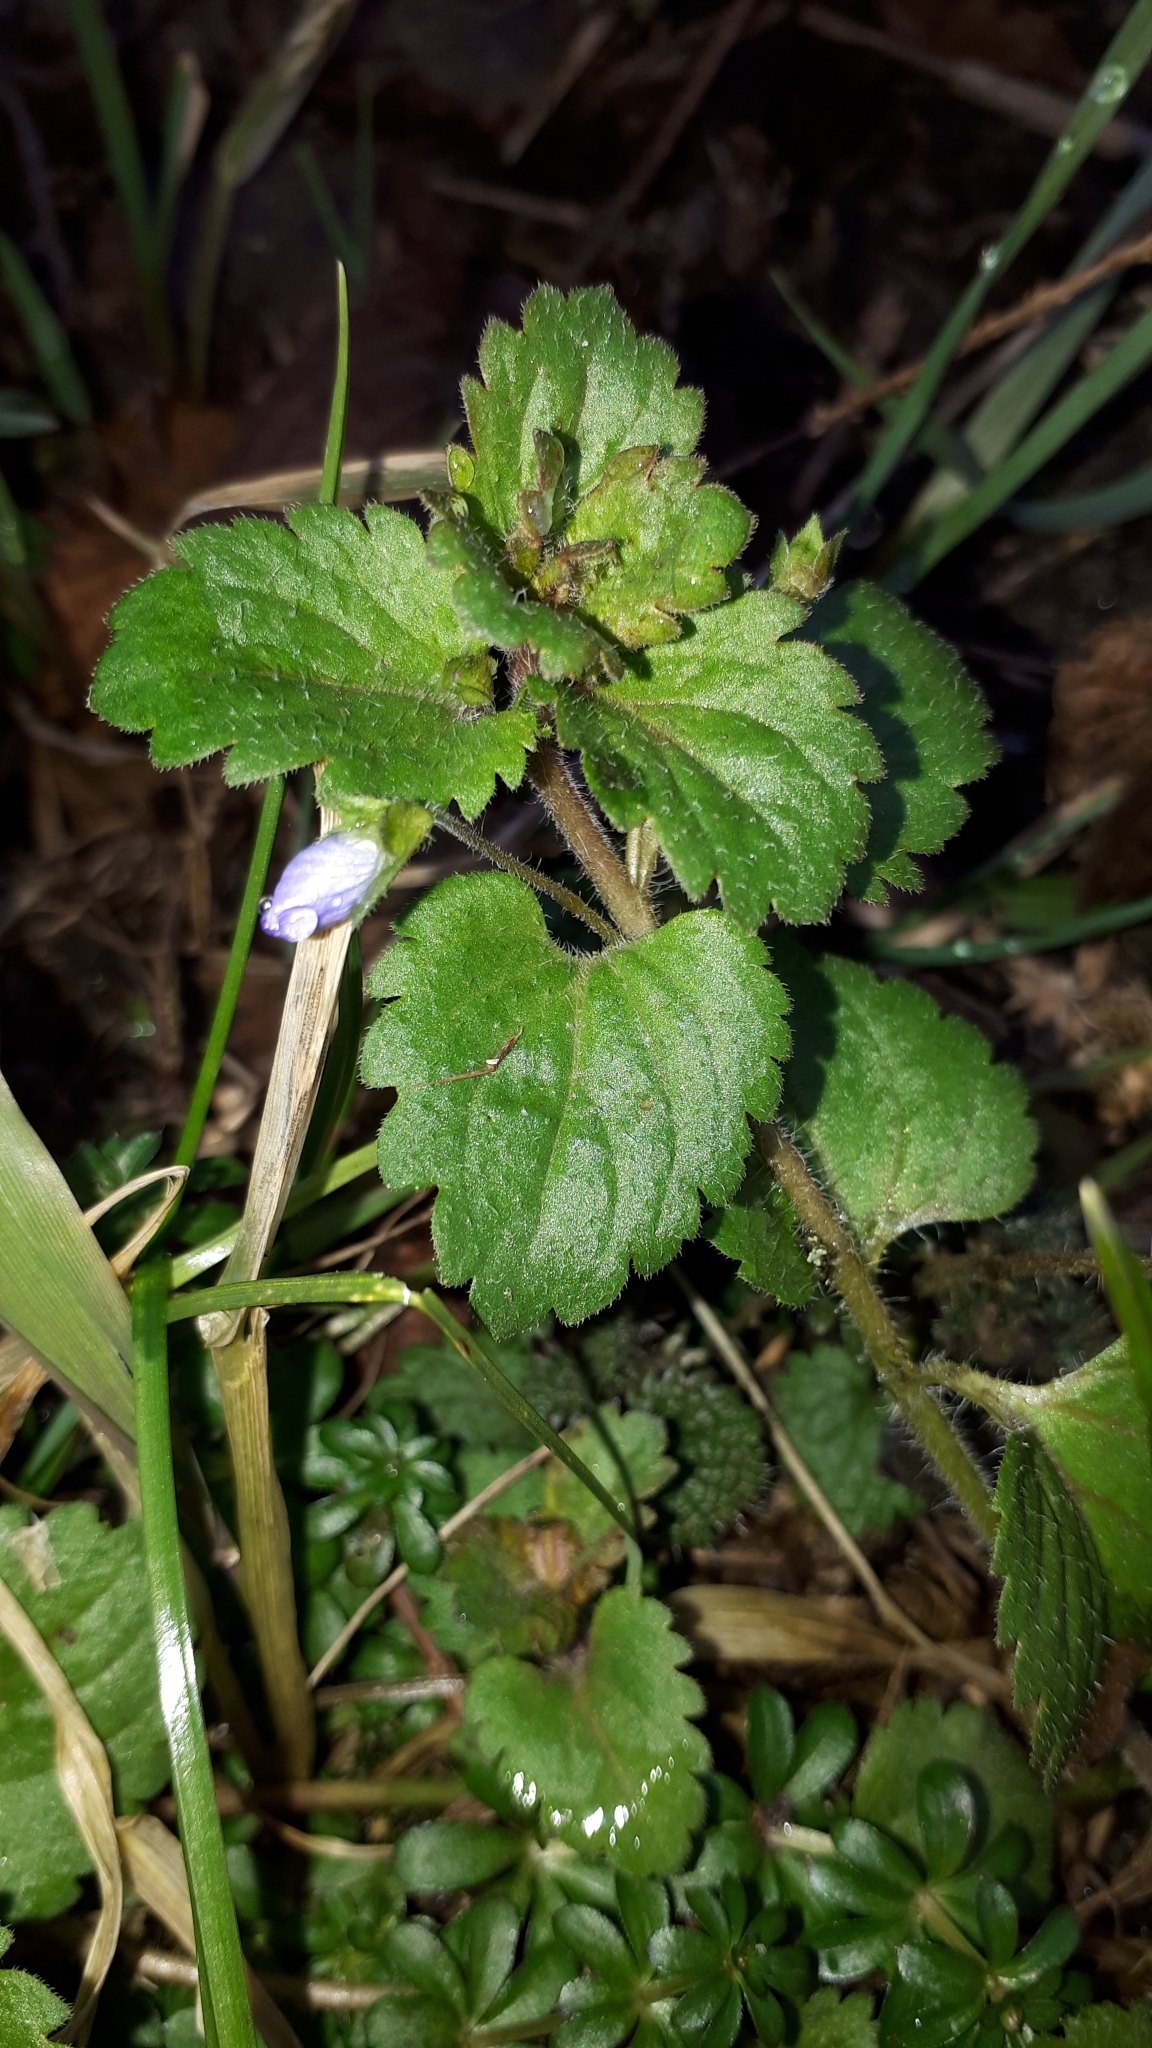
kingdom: Plantae
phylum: Tracheophyta
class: Magnoliopsida
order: Lamiales
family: Plantaginaceae
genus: Veronica
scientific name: Veronica persica
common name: Common field-speedwell
